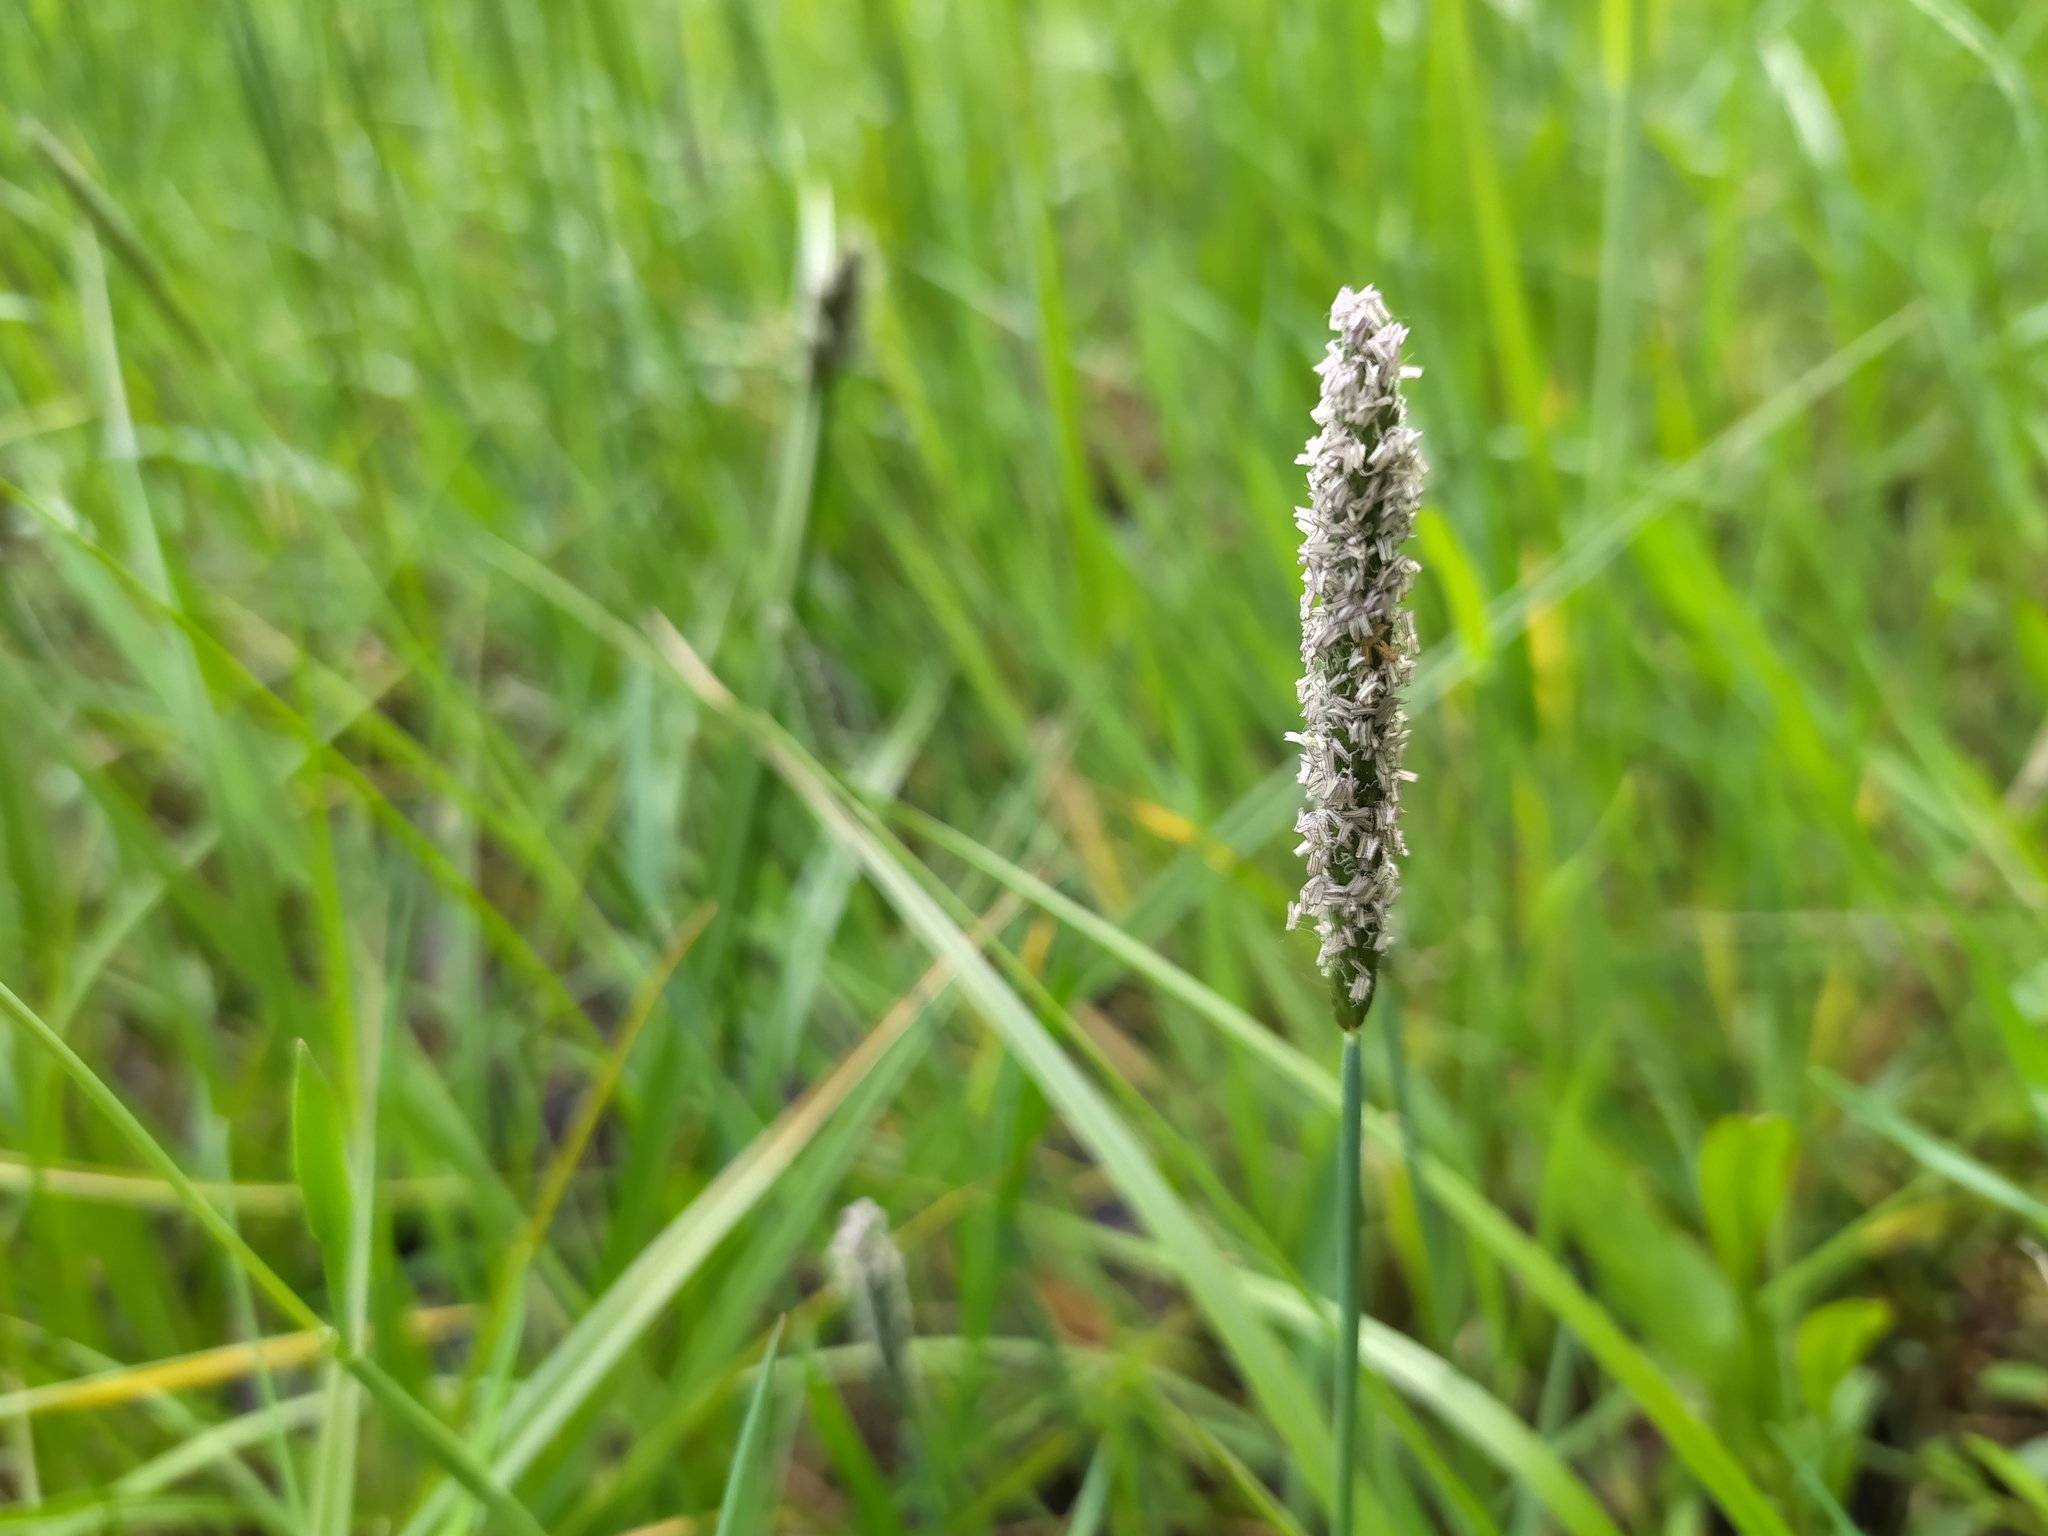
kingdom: Plantae
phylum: Tracheophyta
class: Liliopsida
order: Poales
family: Poaceae
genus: Alopecurus
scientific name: Alopecurus geniculatus
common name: Water foxtail
